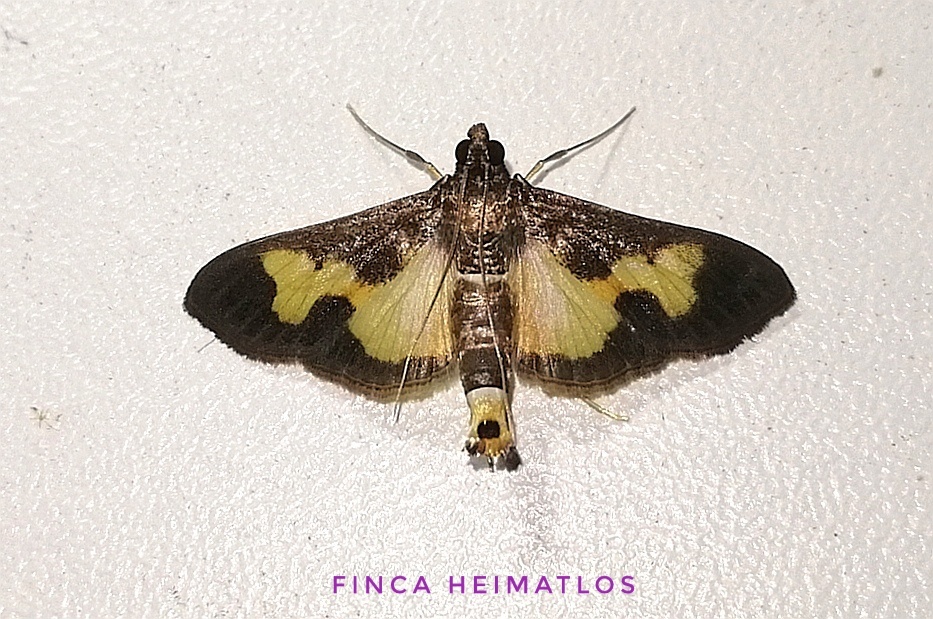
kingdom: Animalia
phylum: Arthropoda
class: Insecta
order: Lepidoptera
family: Crambidae
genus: Cryptographis
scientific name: Cryptographis nitidalis
